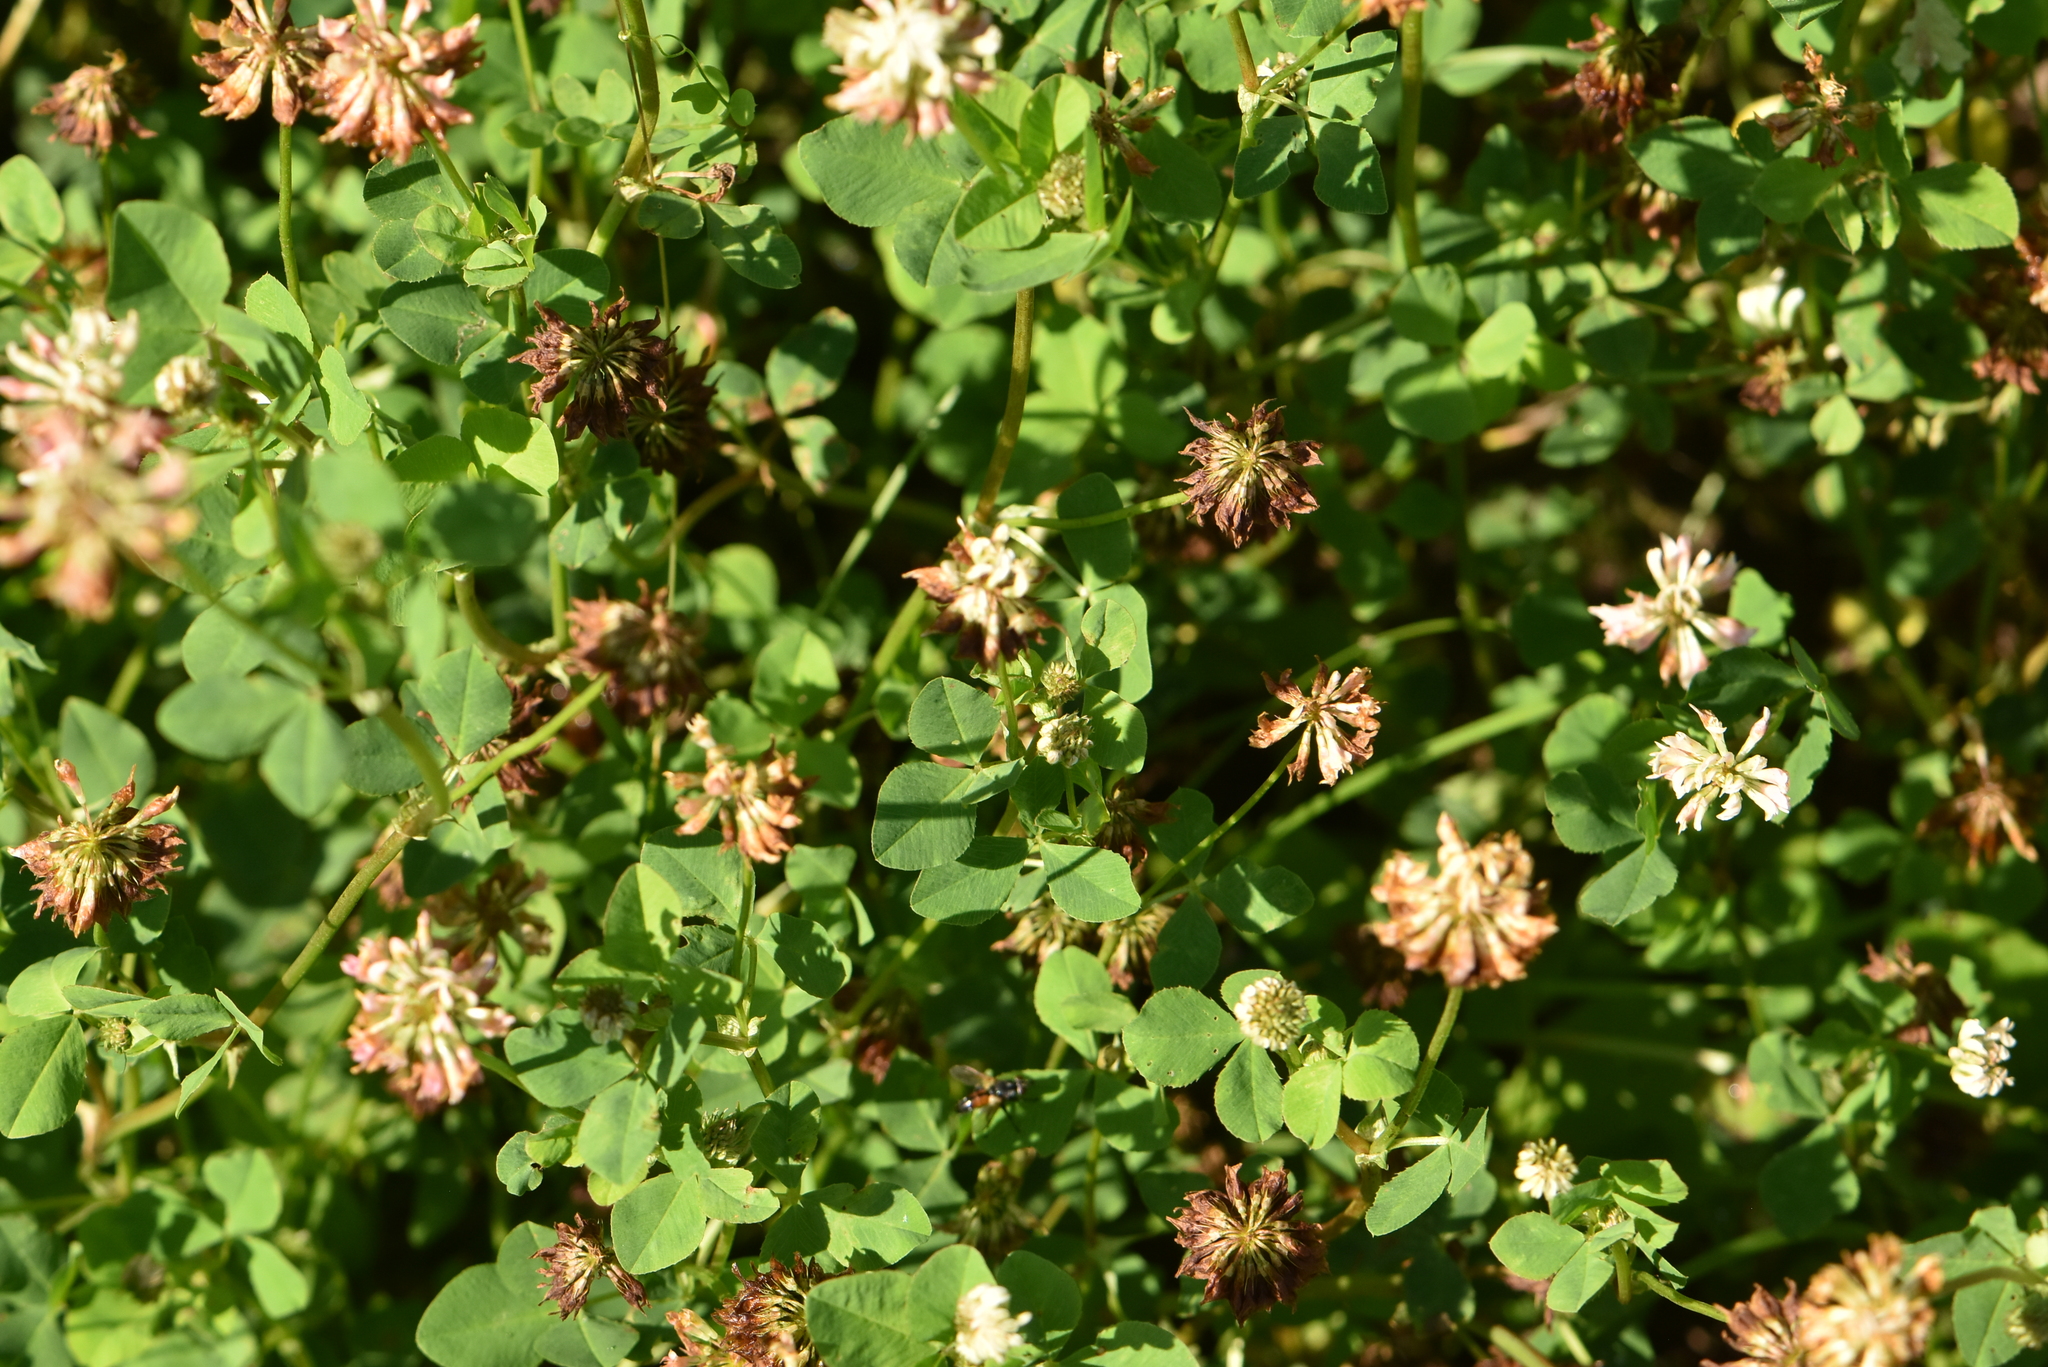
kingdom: Plantae
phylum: Tracheophyta
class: Magnoliopsida
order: Fabales
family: Fabaceae
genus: Trifolium
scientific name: Trifolium hybridum
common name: Alsike clover
